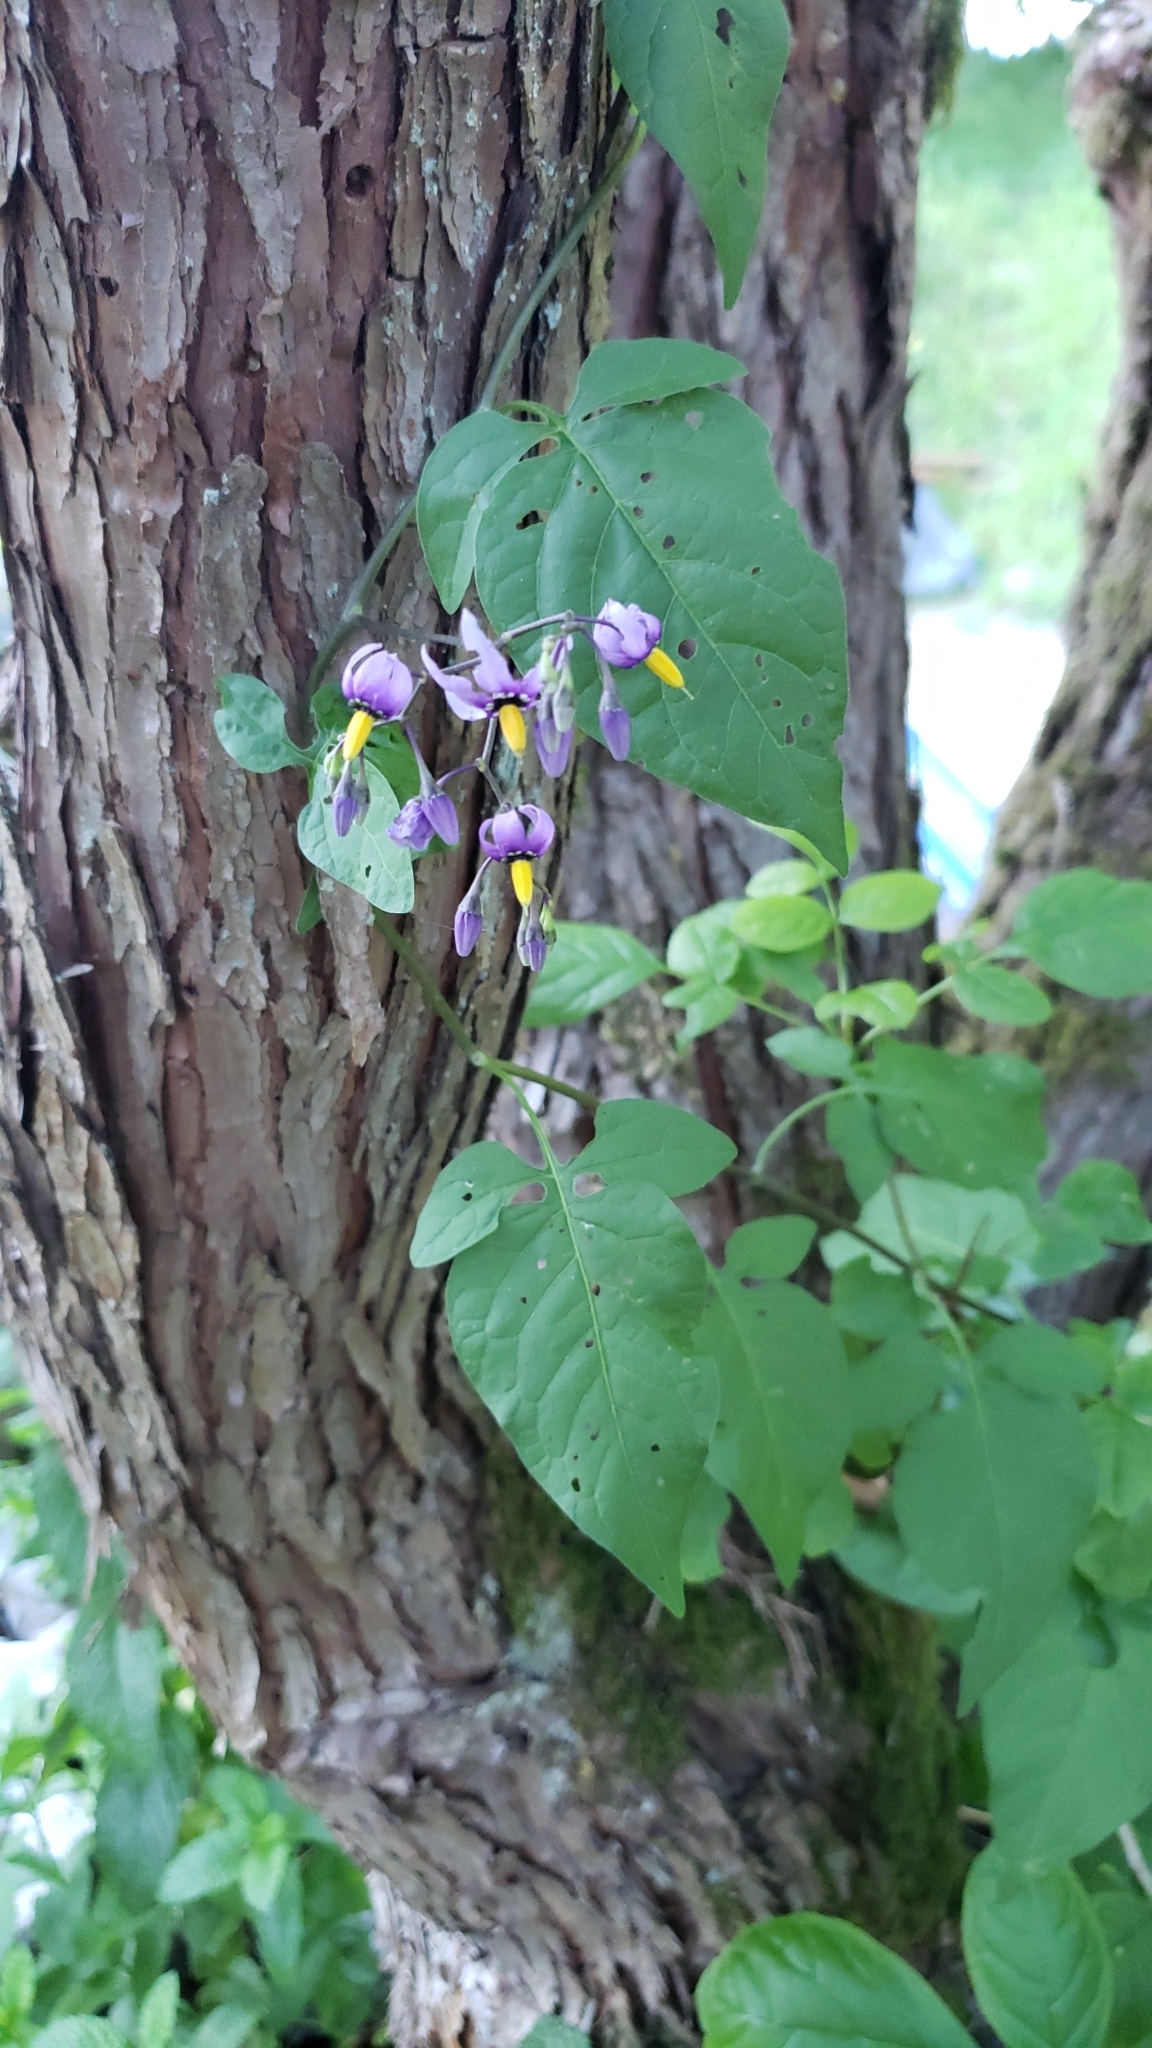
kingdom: Plantae
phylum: Tracheophyta
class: Magnoliopsida
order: Solanales
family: Solanaceae
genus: Solanum
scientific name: Solanum dulcamara
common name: Climbing nightshade
